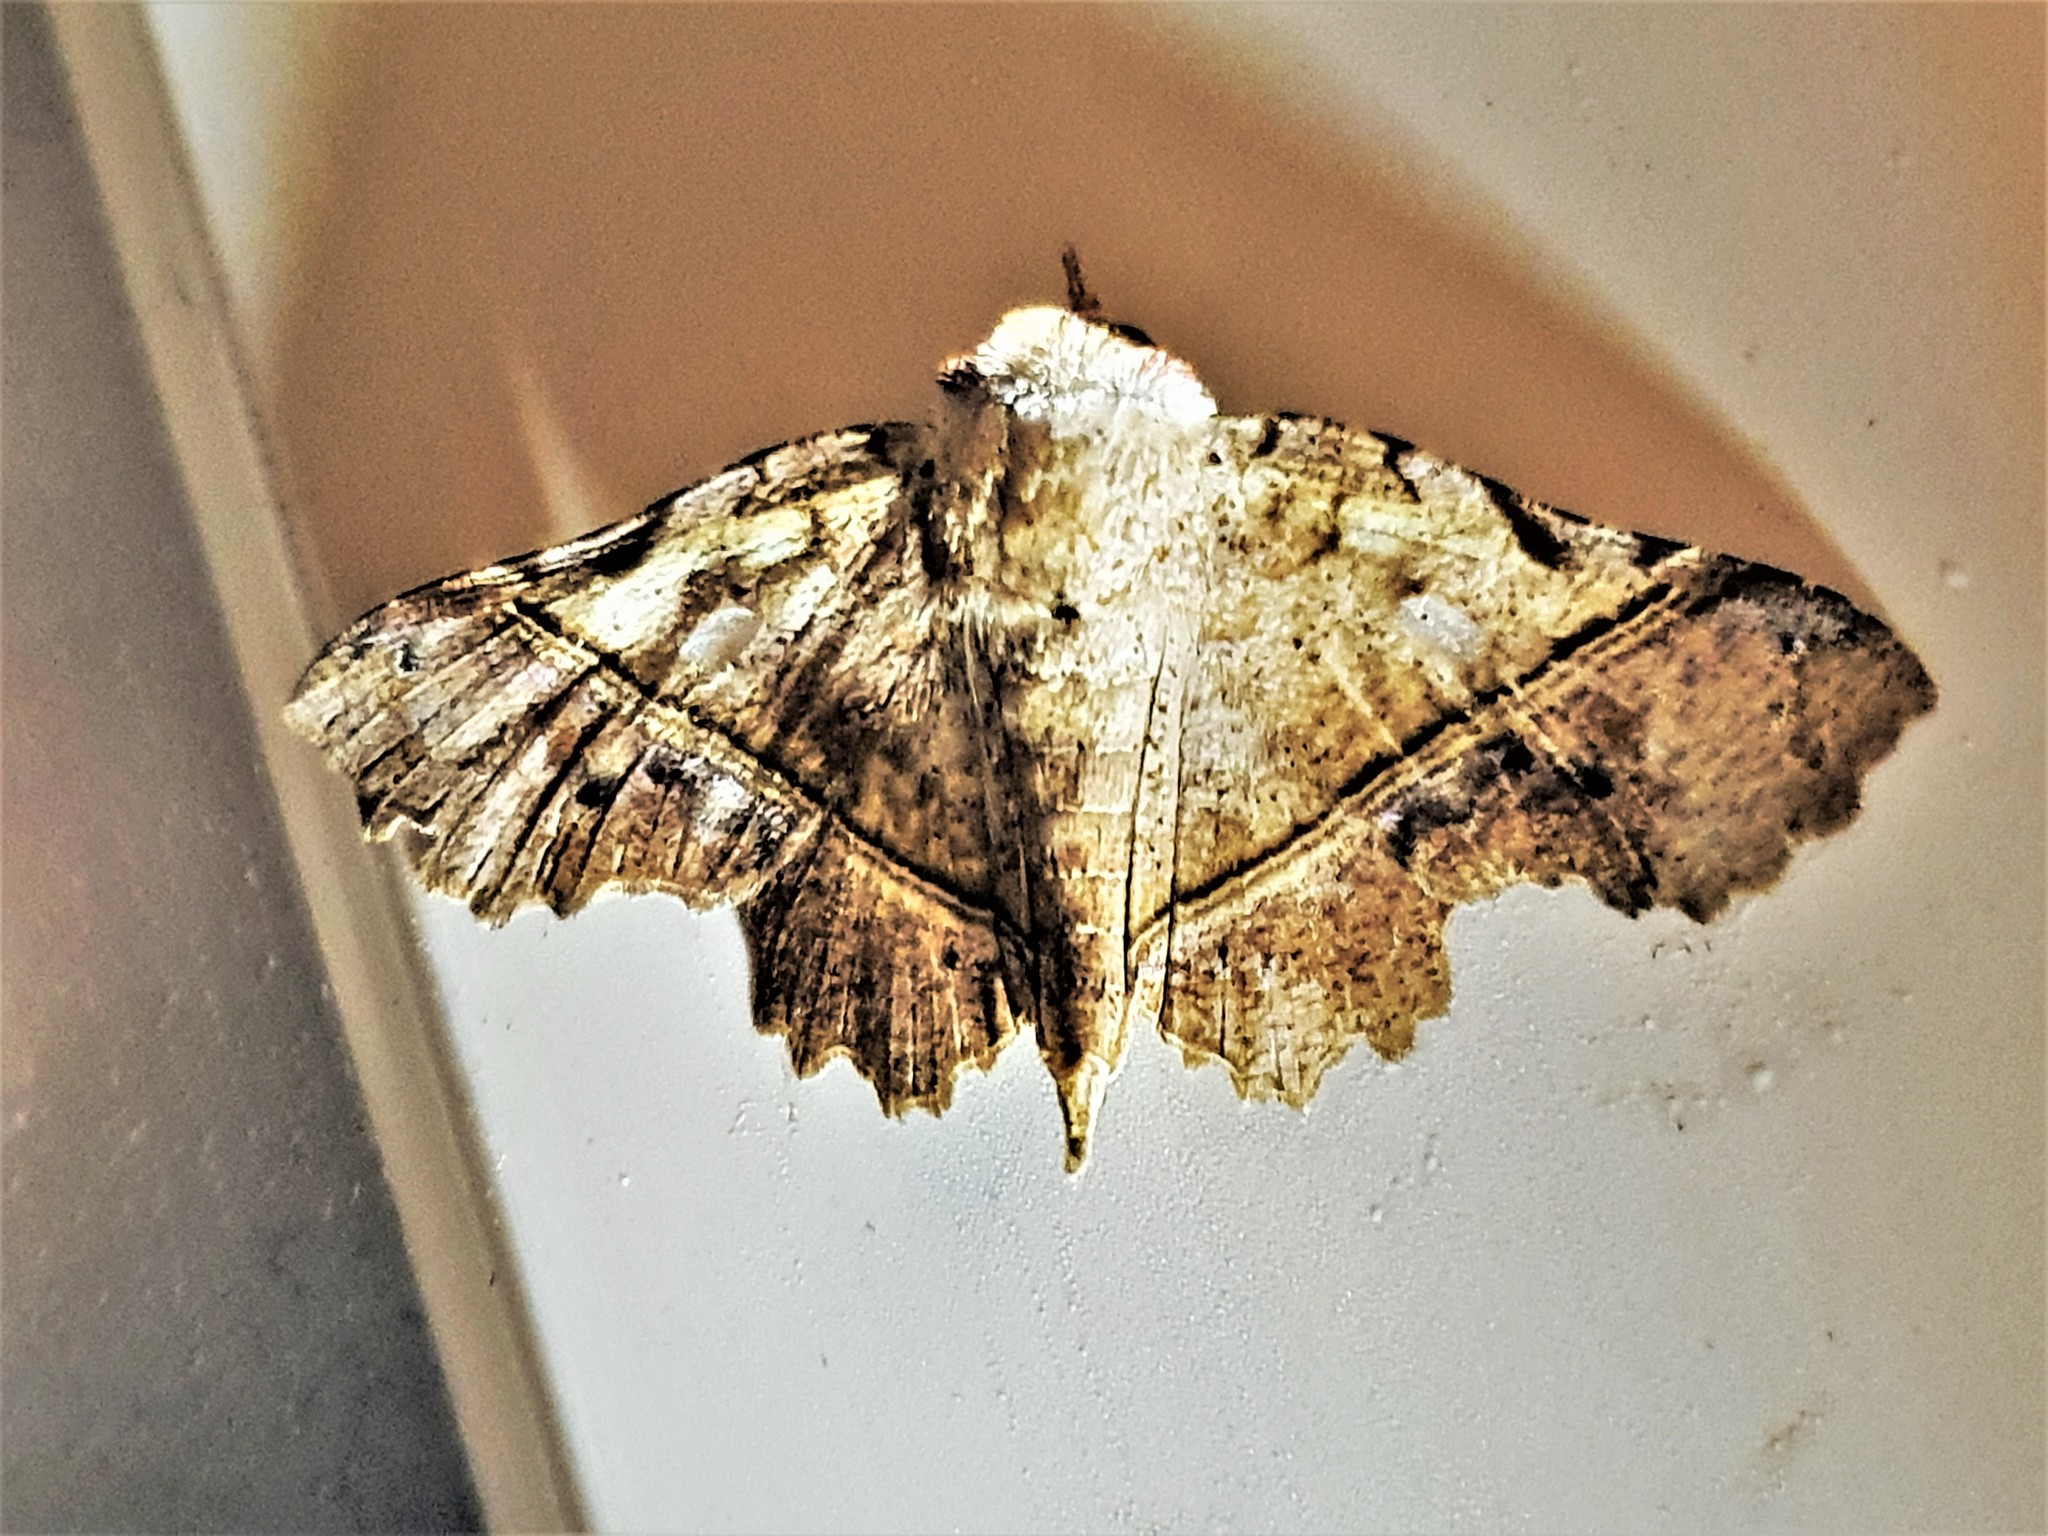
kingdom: Animalia
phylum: Arthropoda
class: Insecta
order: Lepidoptera
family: Erebidae
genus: Gonuris
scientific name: Gonuris flaminia
